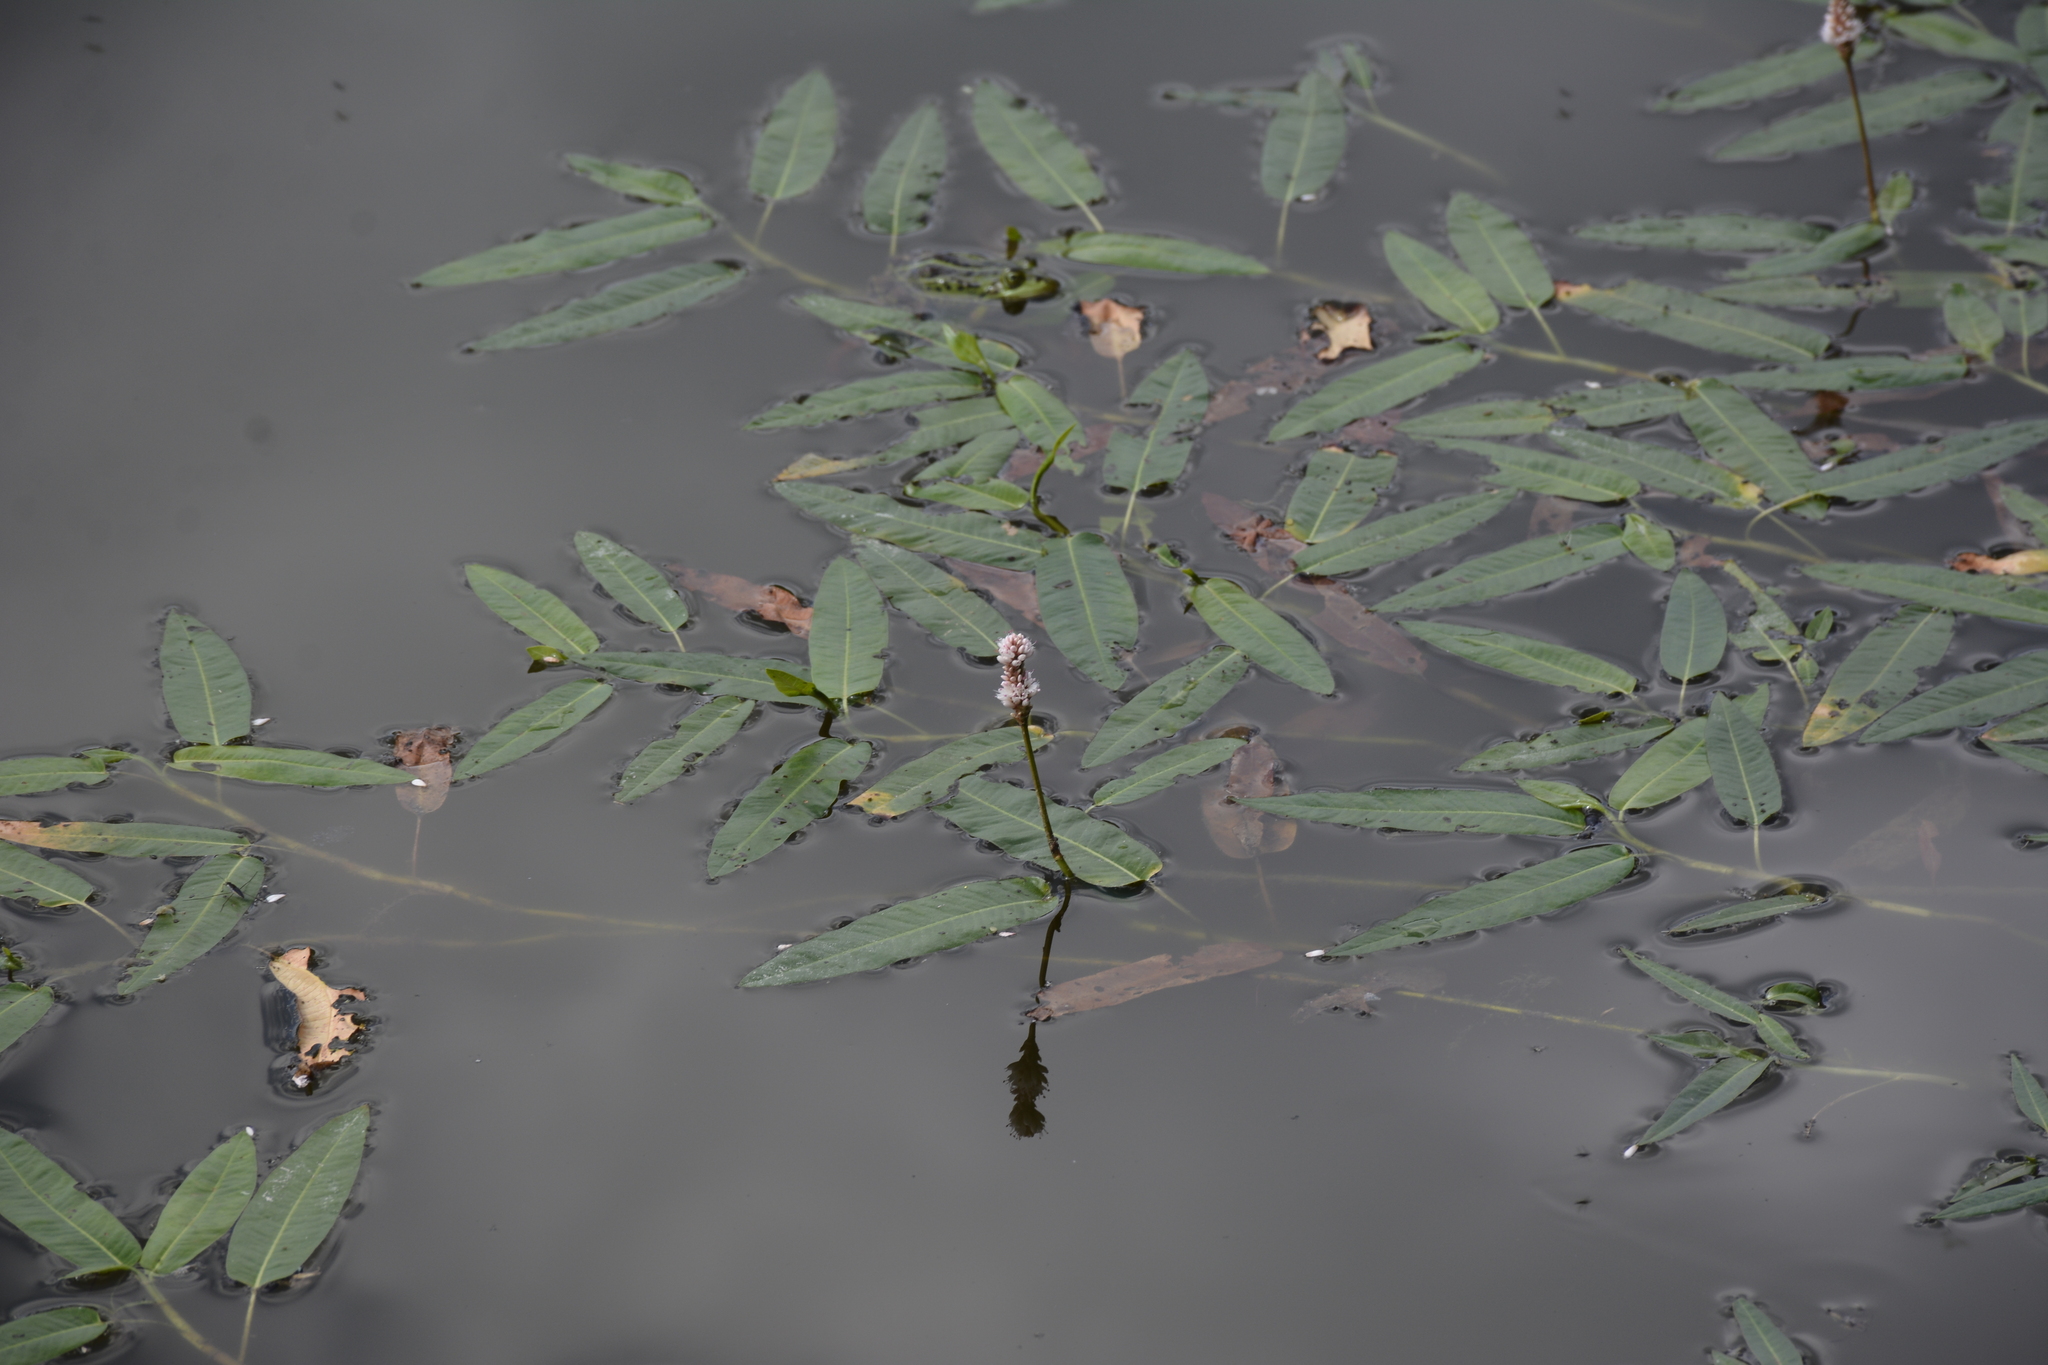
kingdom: Plantae
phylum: Tracheophyta
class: Magnoliopsida
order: Caryophyllales
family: Polygonaceae
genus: Persicaria
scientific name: Persicaria amphibia
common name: Amphibious bistort
